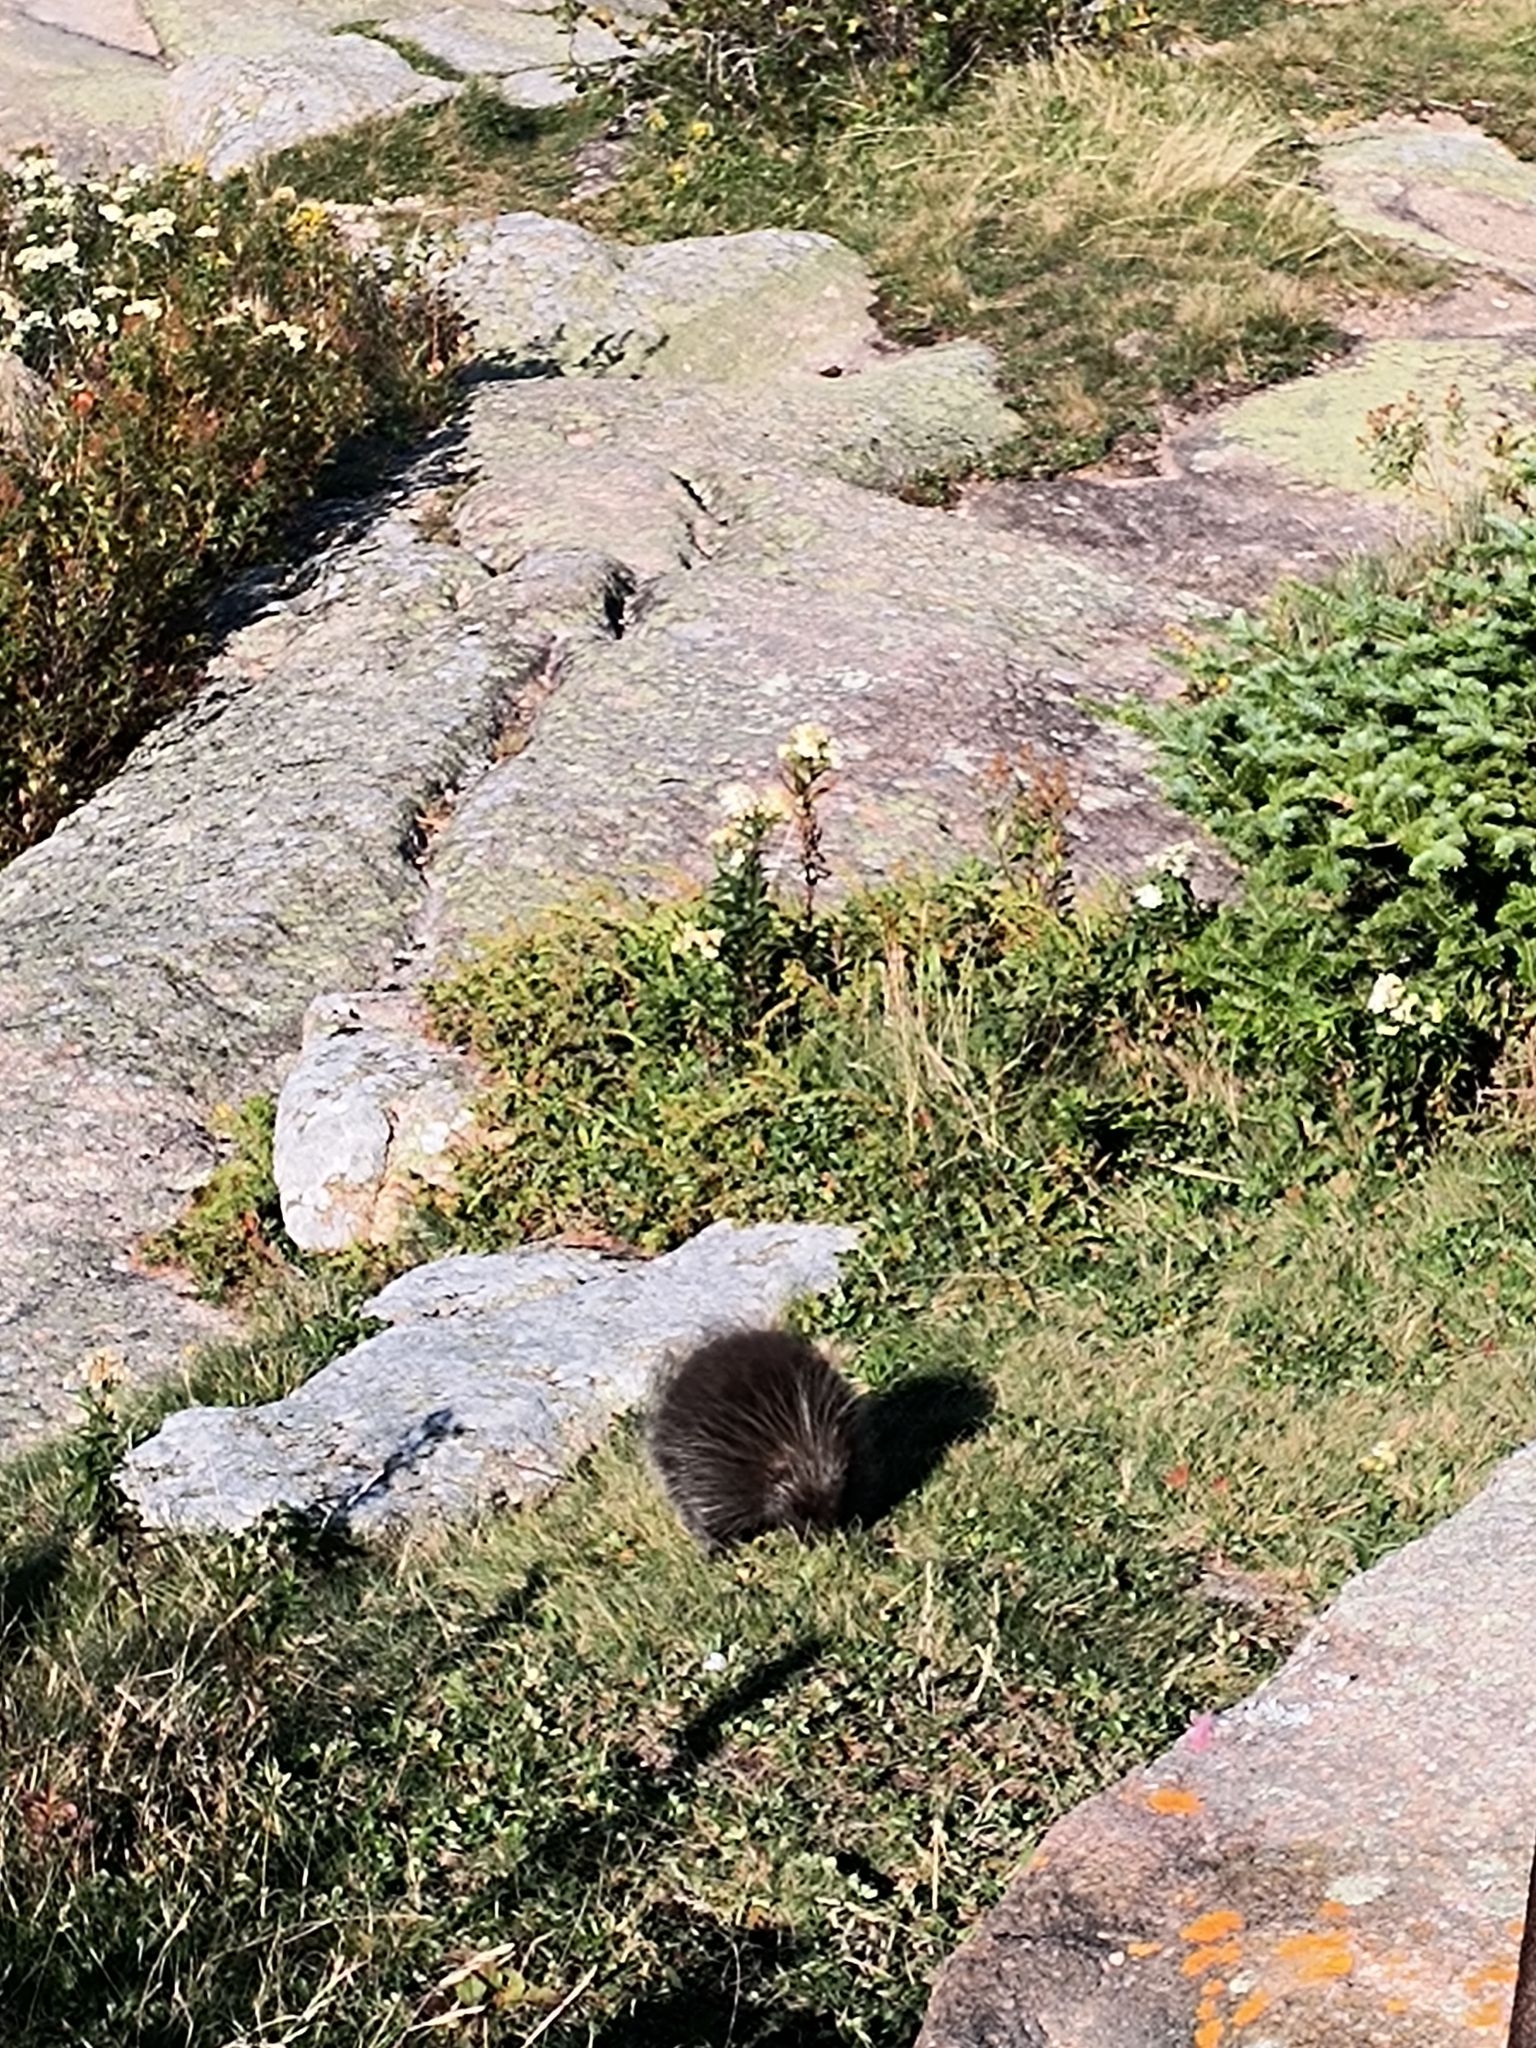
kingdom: Animalia
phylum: Chordata
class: Mammalia
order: Rodentia
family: Erethizontidae
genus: Erethizon
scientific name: Erethizon dorsatus
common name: North american porcupine
